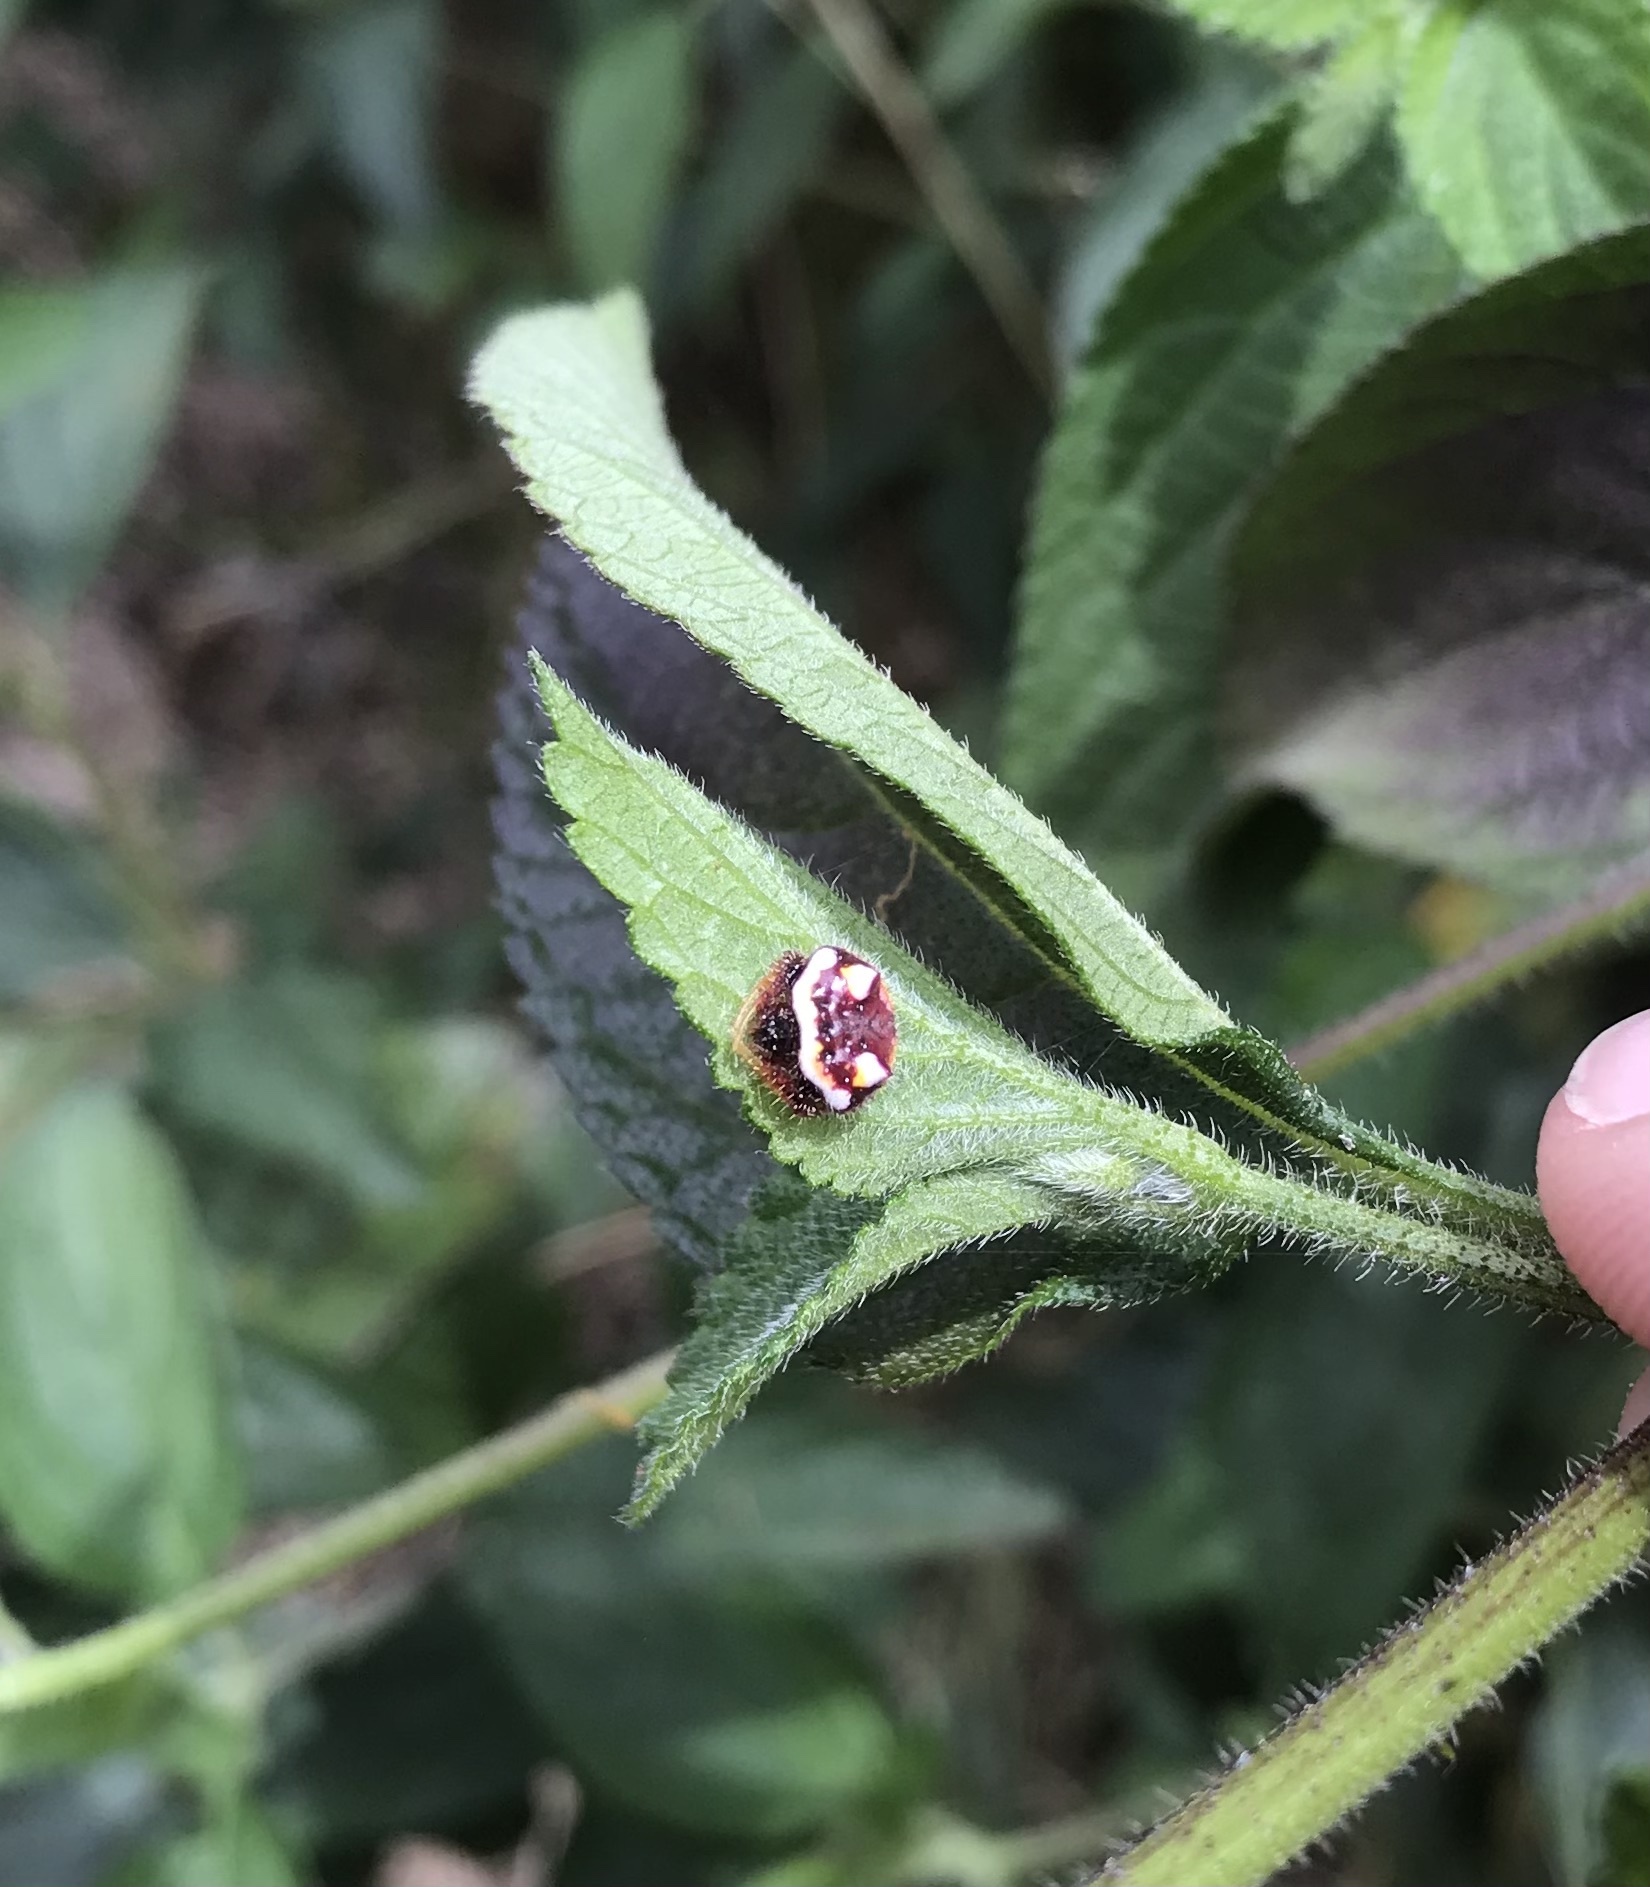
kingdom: Animalia
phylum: Arthropoda
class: Arachnida
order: Araneae
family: Araneidae
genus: Poecilopachys
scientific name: Poecilopachys australasia
